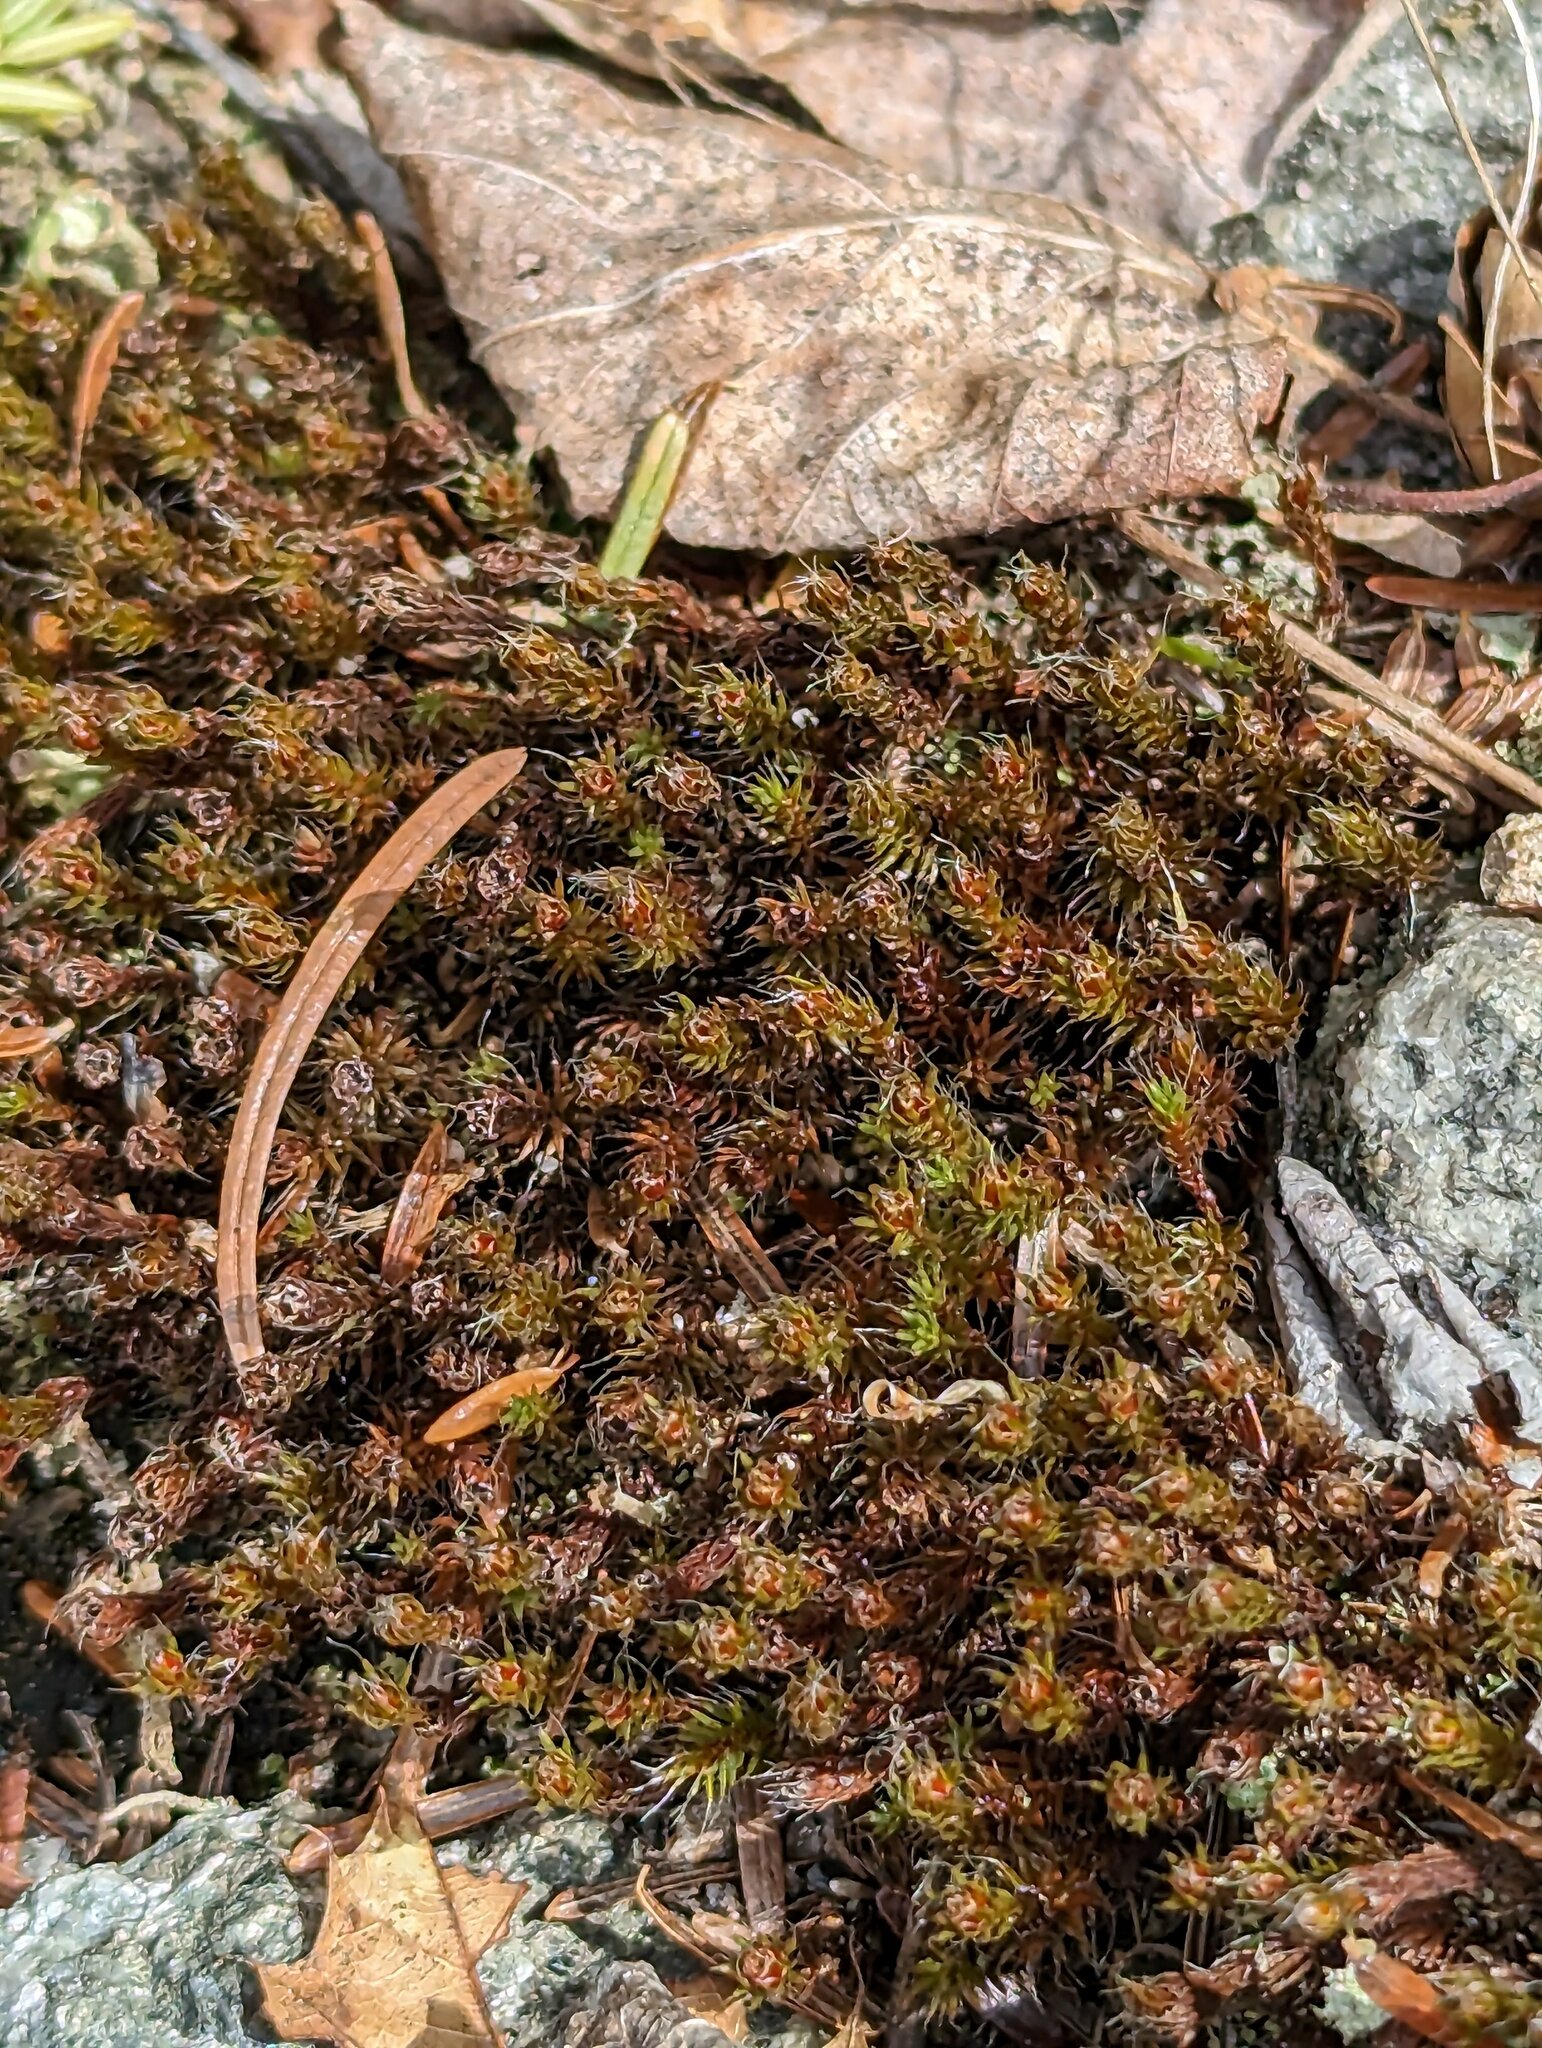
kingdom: Plantae
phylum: Bryophyta
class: Polytrichopsida
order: Polytrichales
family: Polytrichaceae
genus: Polytrichum
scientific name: Polytrichum piliferum
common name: Bristly haircap
